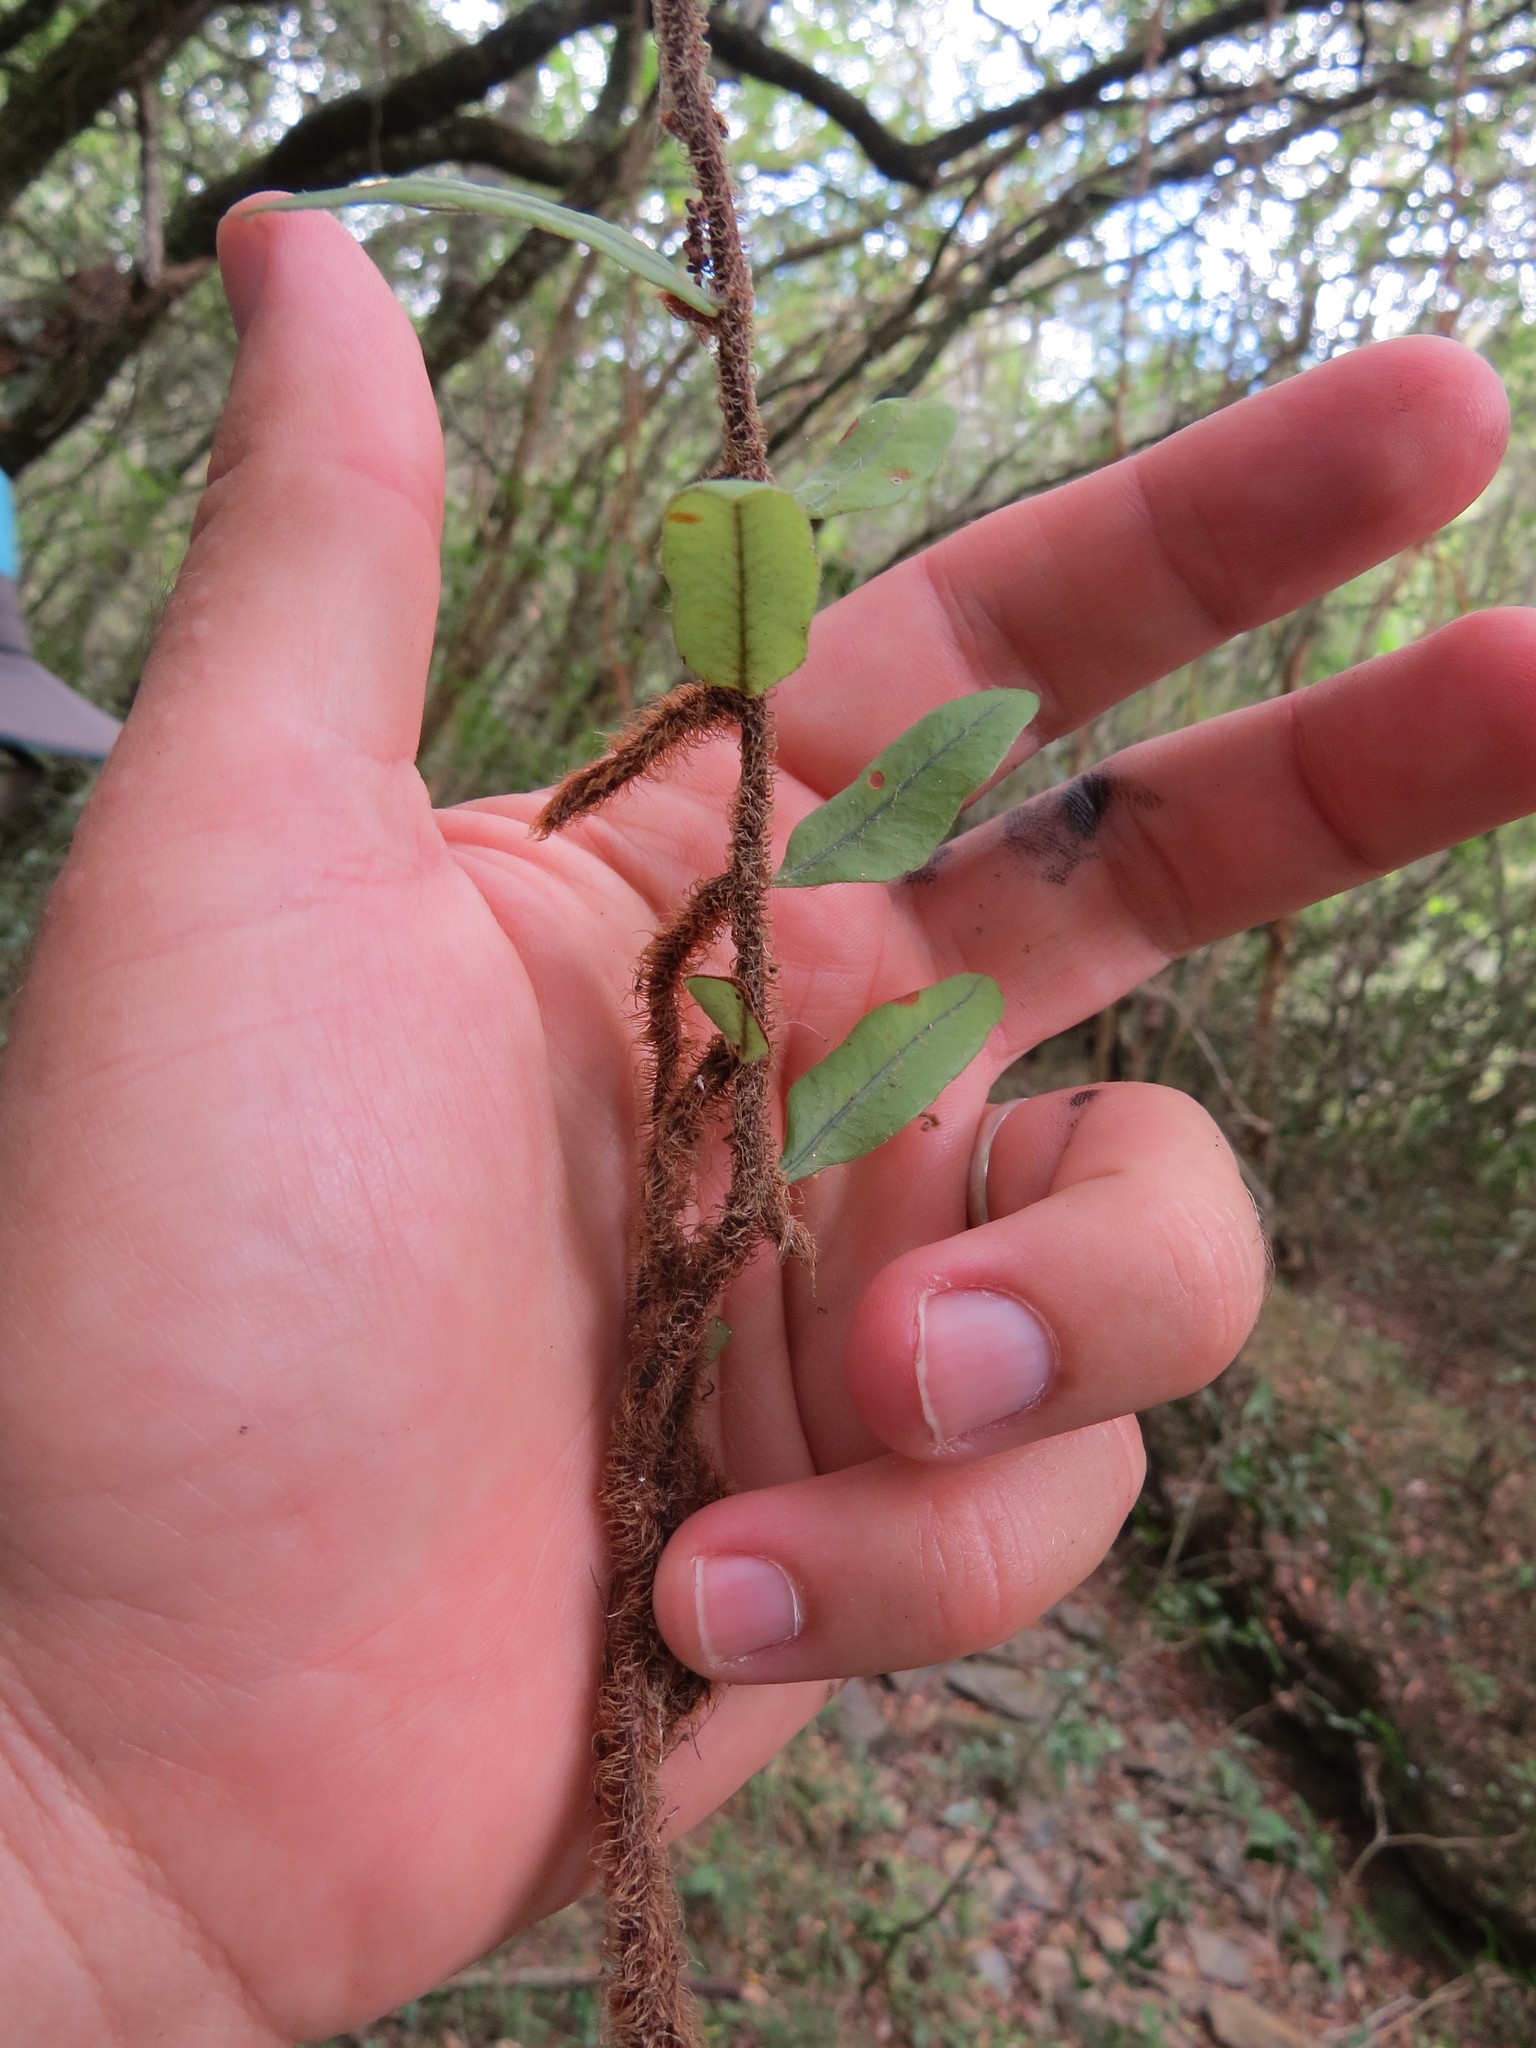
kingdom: Plantae
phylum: Tracheophyta
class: Polypodiopsida
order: Polypodiales
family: Polypodiaceae
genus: Microgramma
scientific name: Microgramma squamulosa
